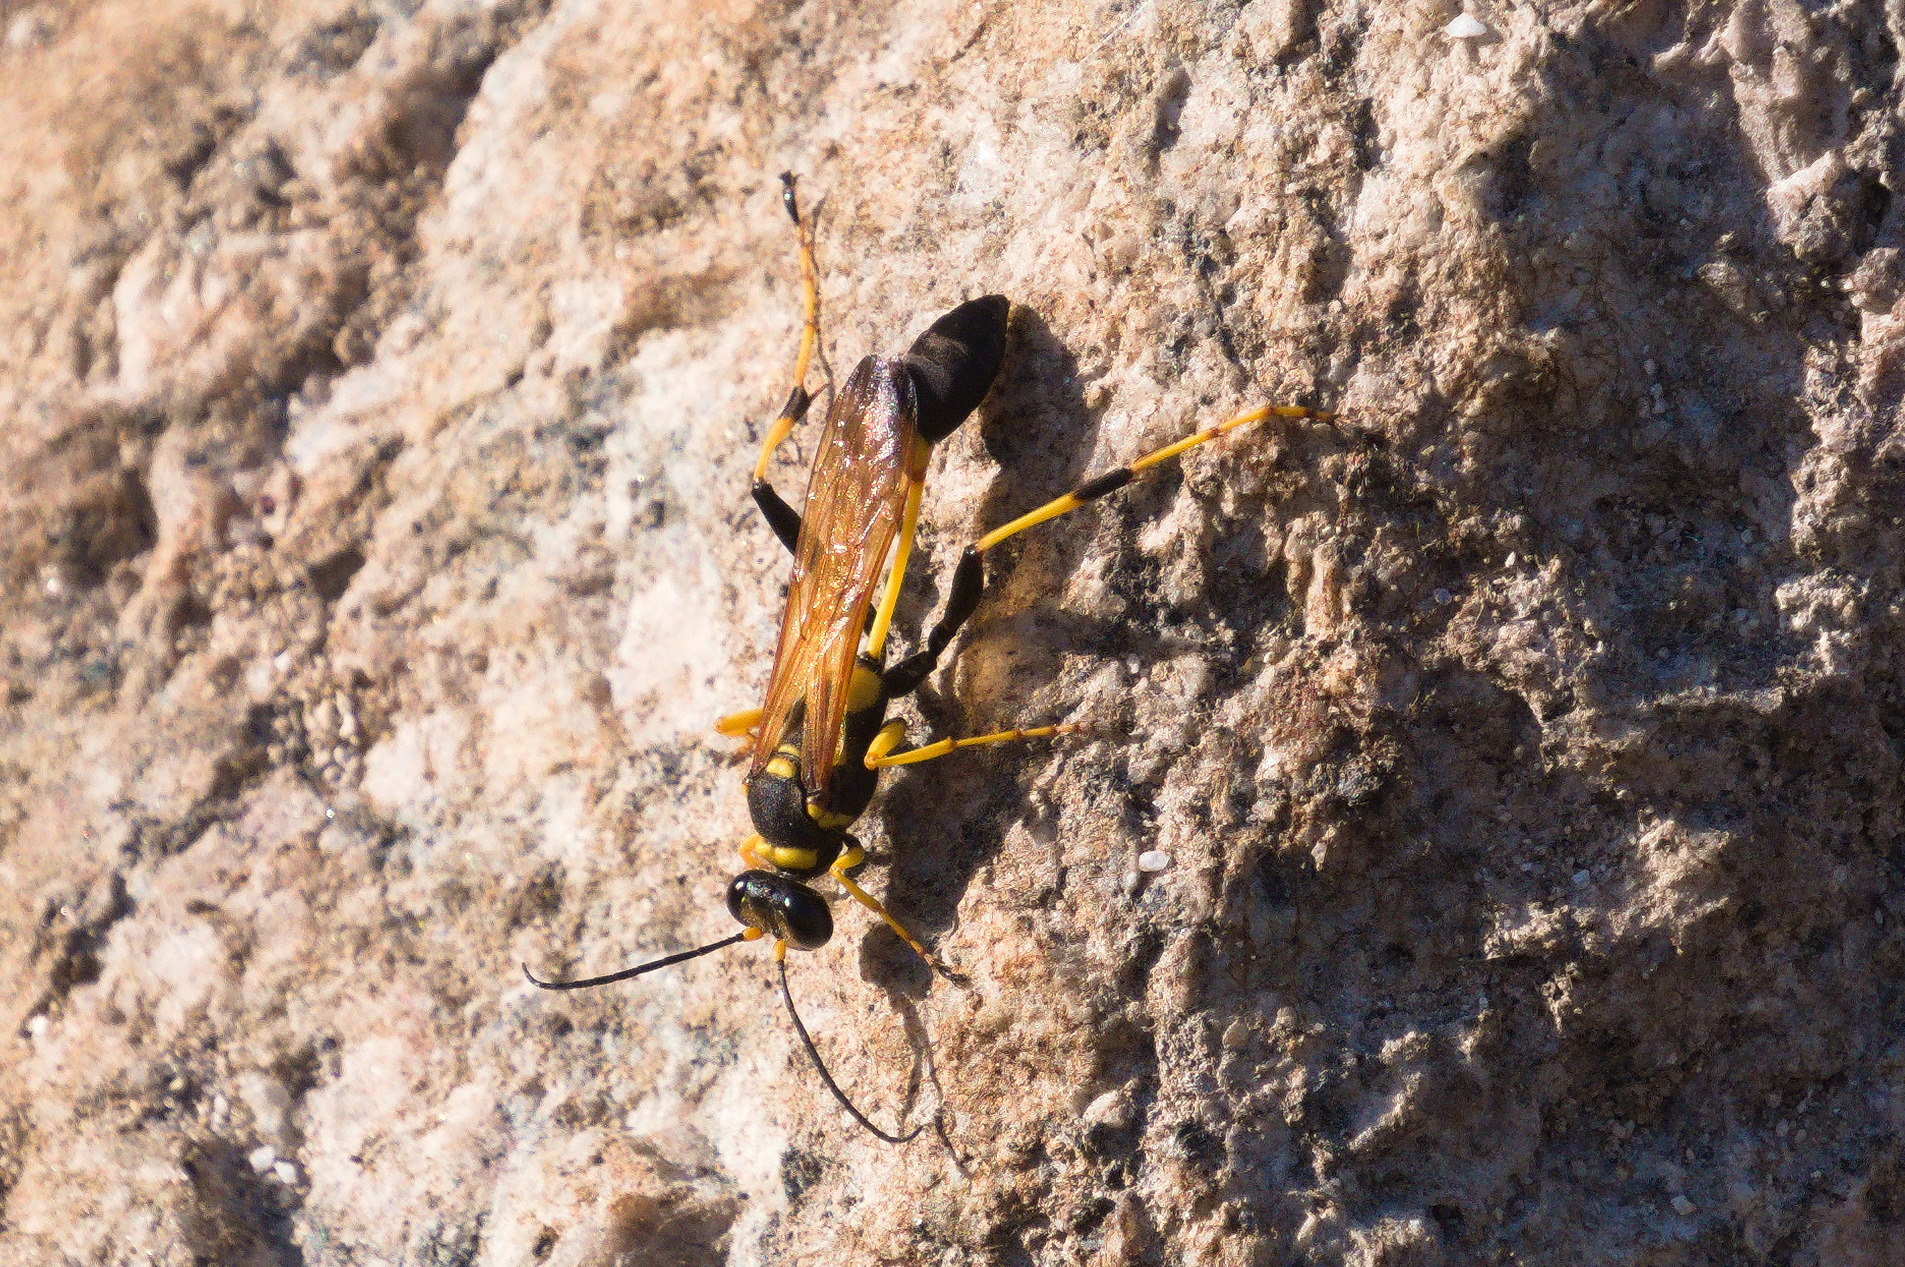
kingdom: Animalia
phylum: Arthropoda
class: Insecta
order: Hymenoptera
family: Sphecidae
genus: Sceliphron
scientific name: Sceliphron caementarium
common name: Mud dauber
